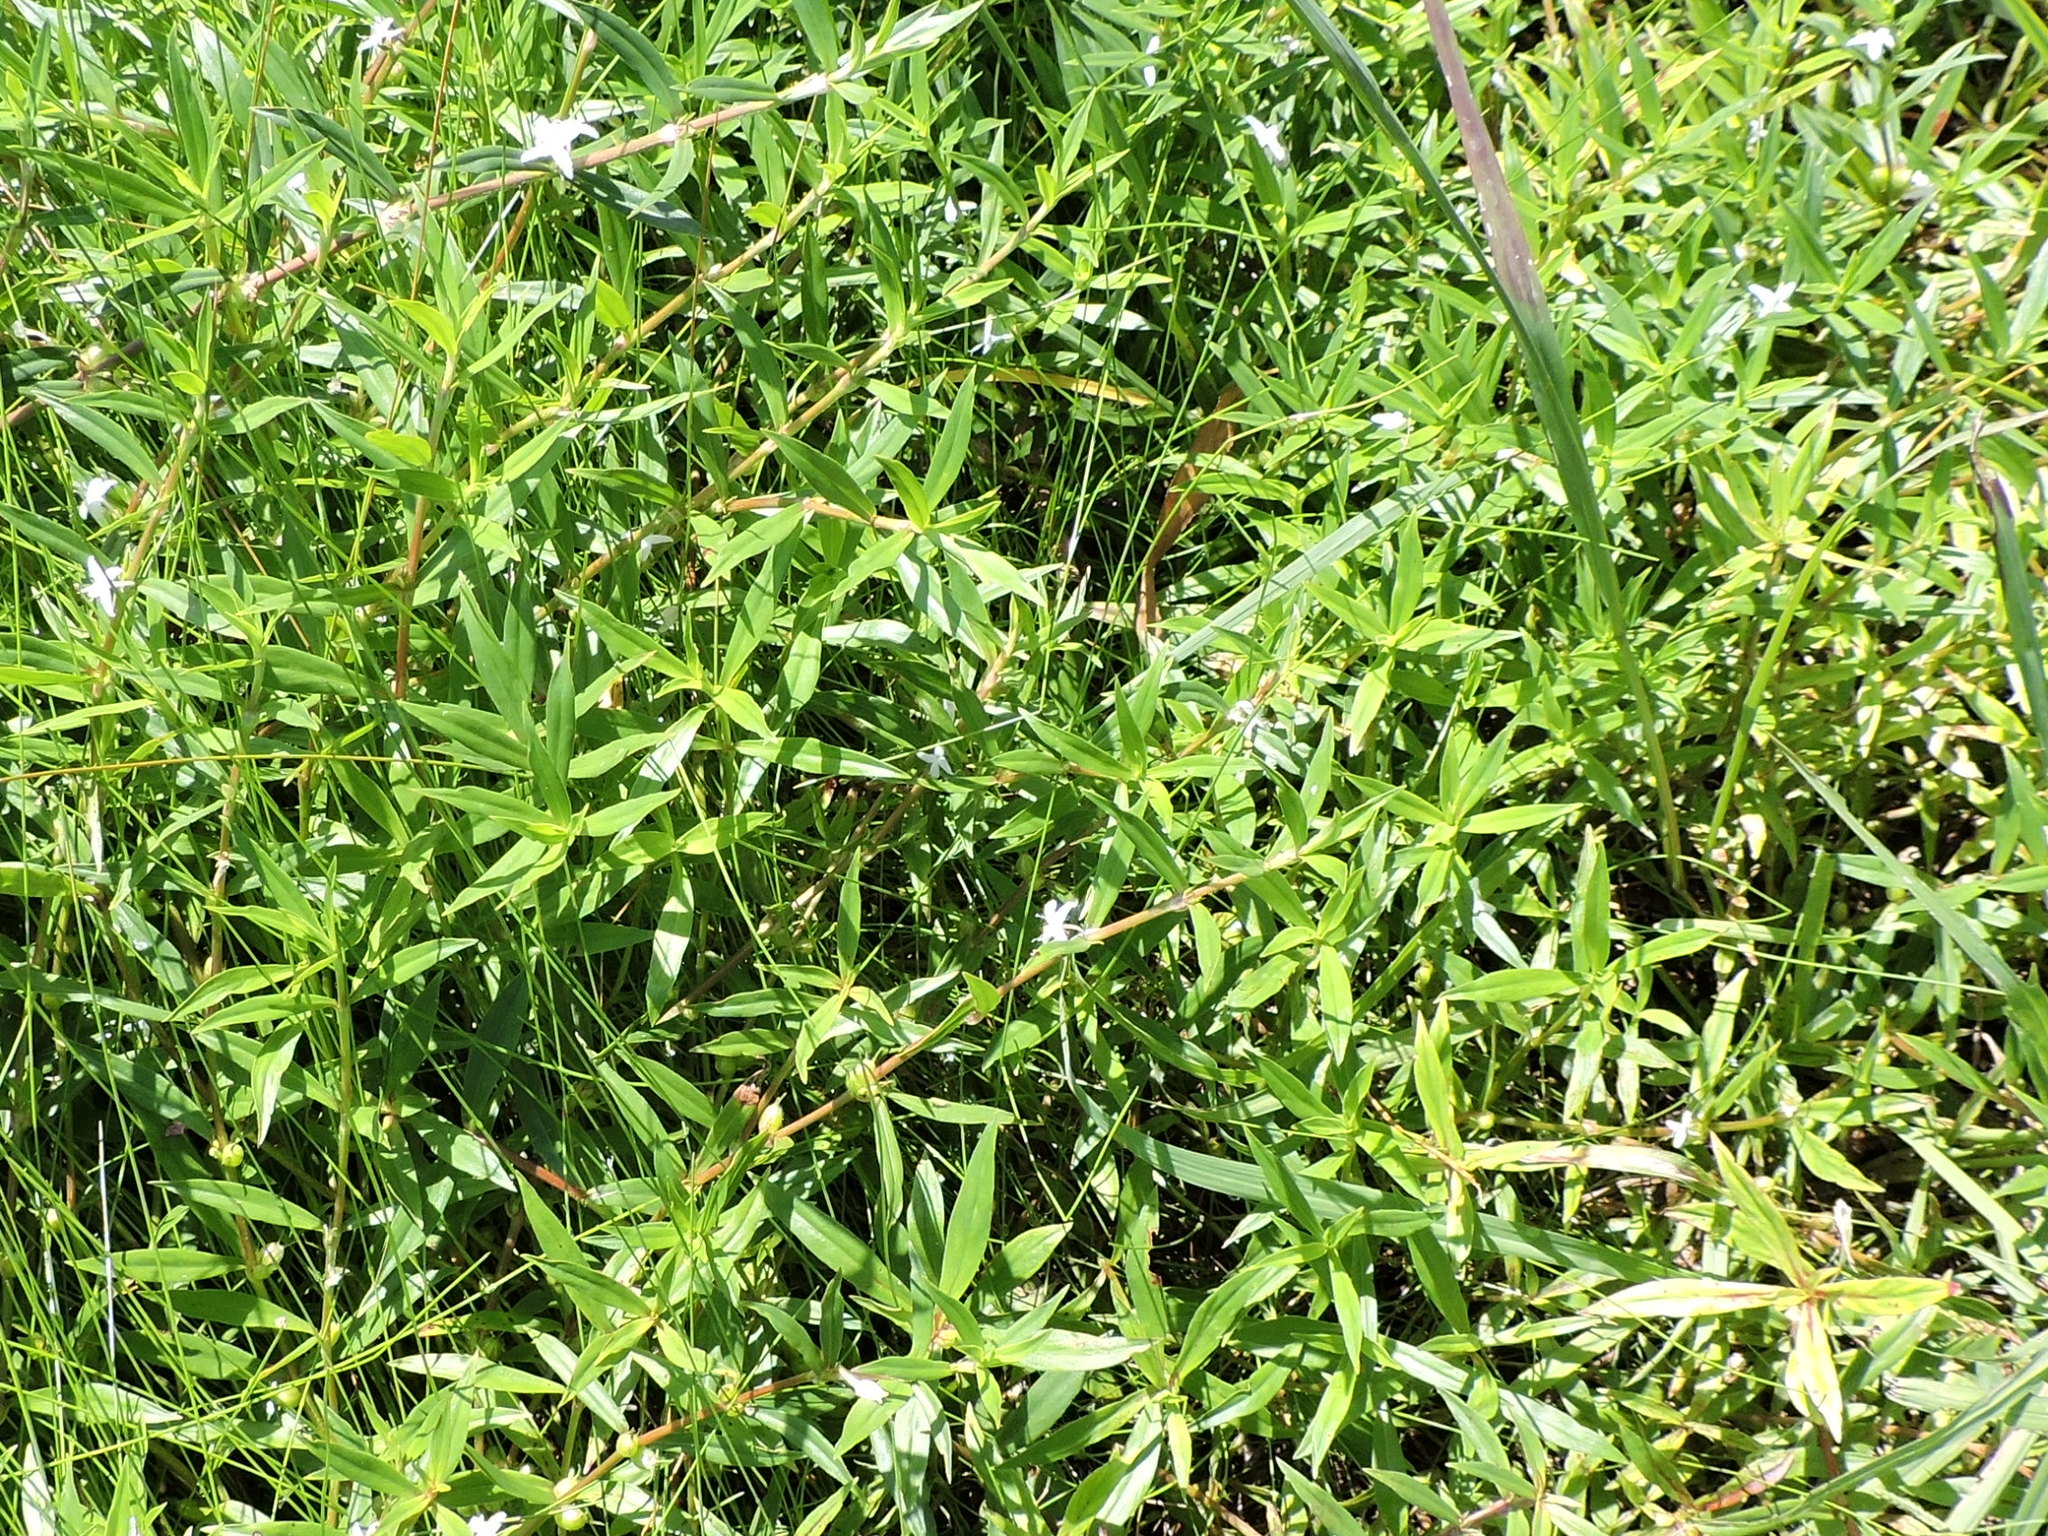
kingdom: Plantae
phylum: Tracheophyta
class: Magnoliopsida
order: Gentianales
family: Rubiaceae
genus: Diodia
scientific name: Diodia virginiana
